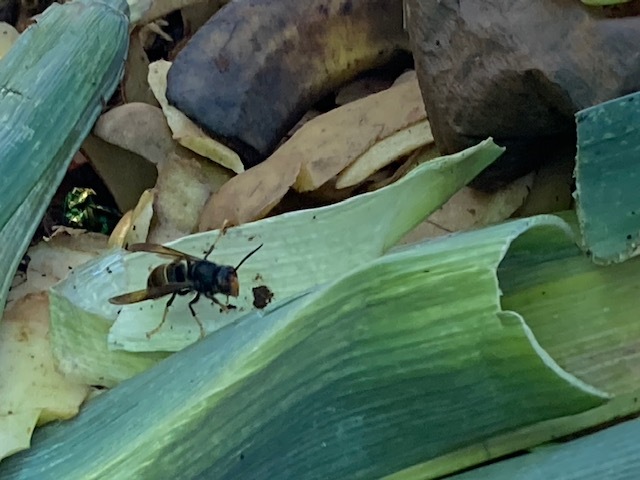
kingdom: Animalia
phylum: Arthropoda
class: Insecta
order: Hymenoptera
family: Vespidae
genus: Vespa
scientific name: Vespa velutina
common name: Asian hornet
